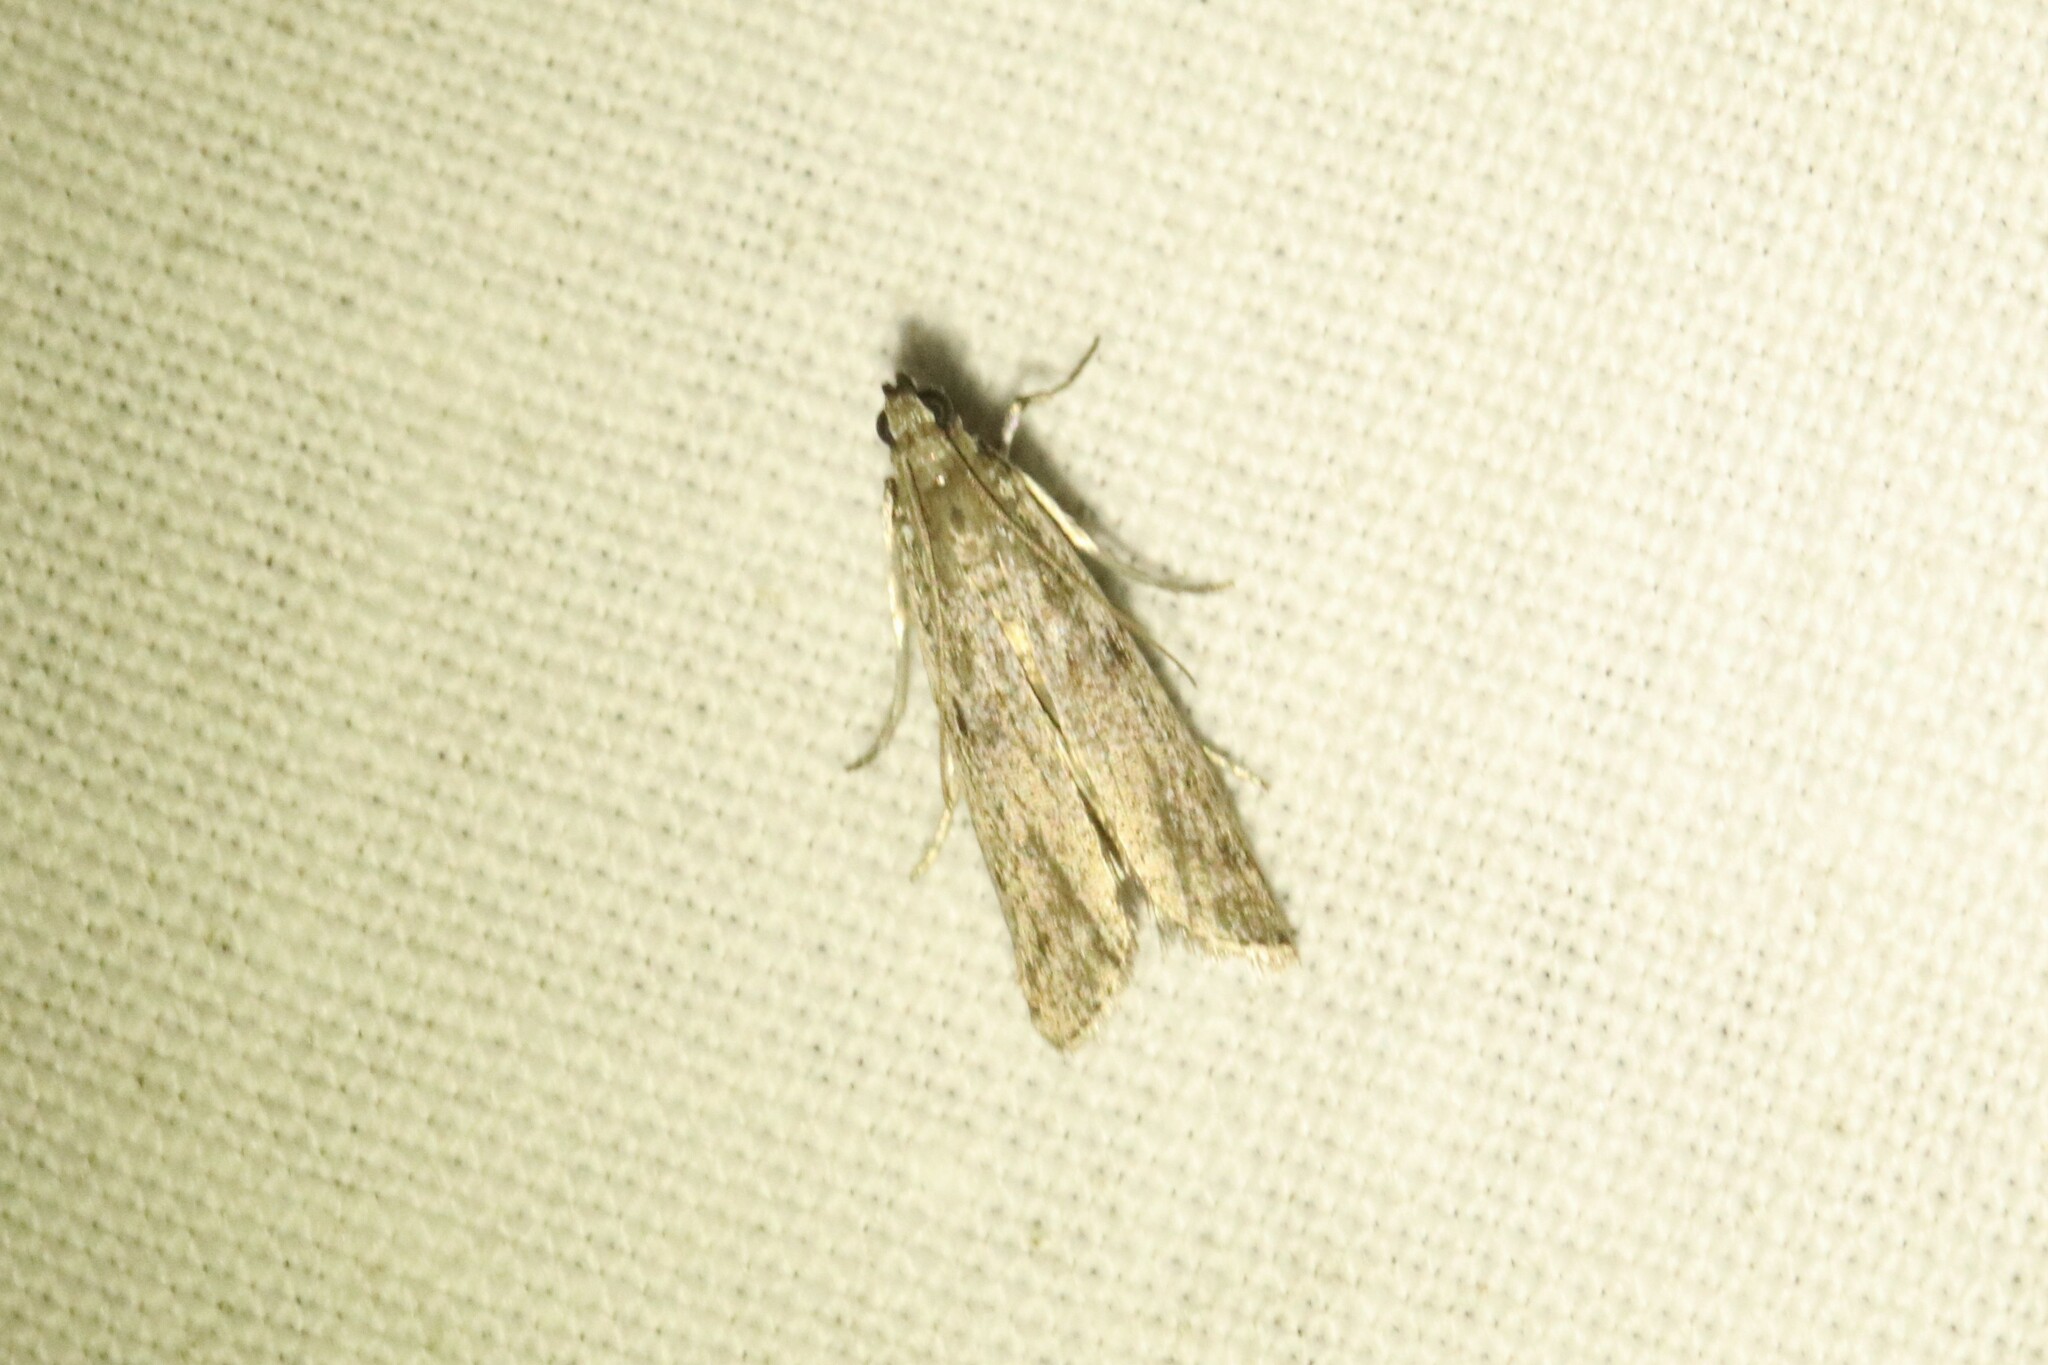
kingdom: Animalia
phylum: Arthropoda
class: Insecta
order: Lepidoptera
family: Crambidae
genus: Eudonia
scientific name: Eudonia strigalis
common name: Striped eudonia moth
